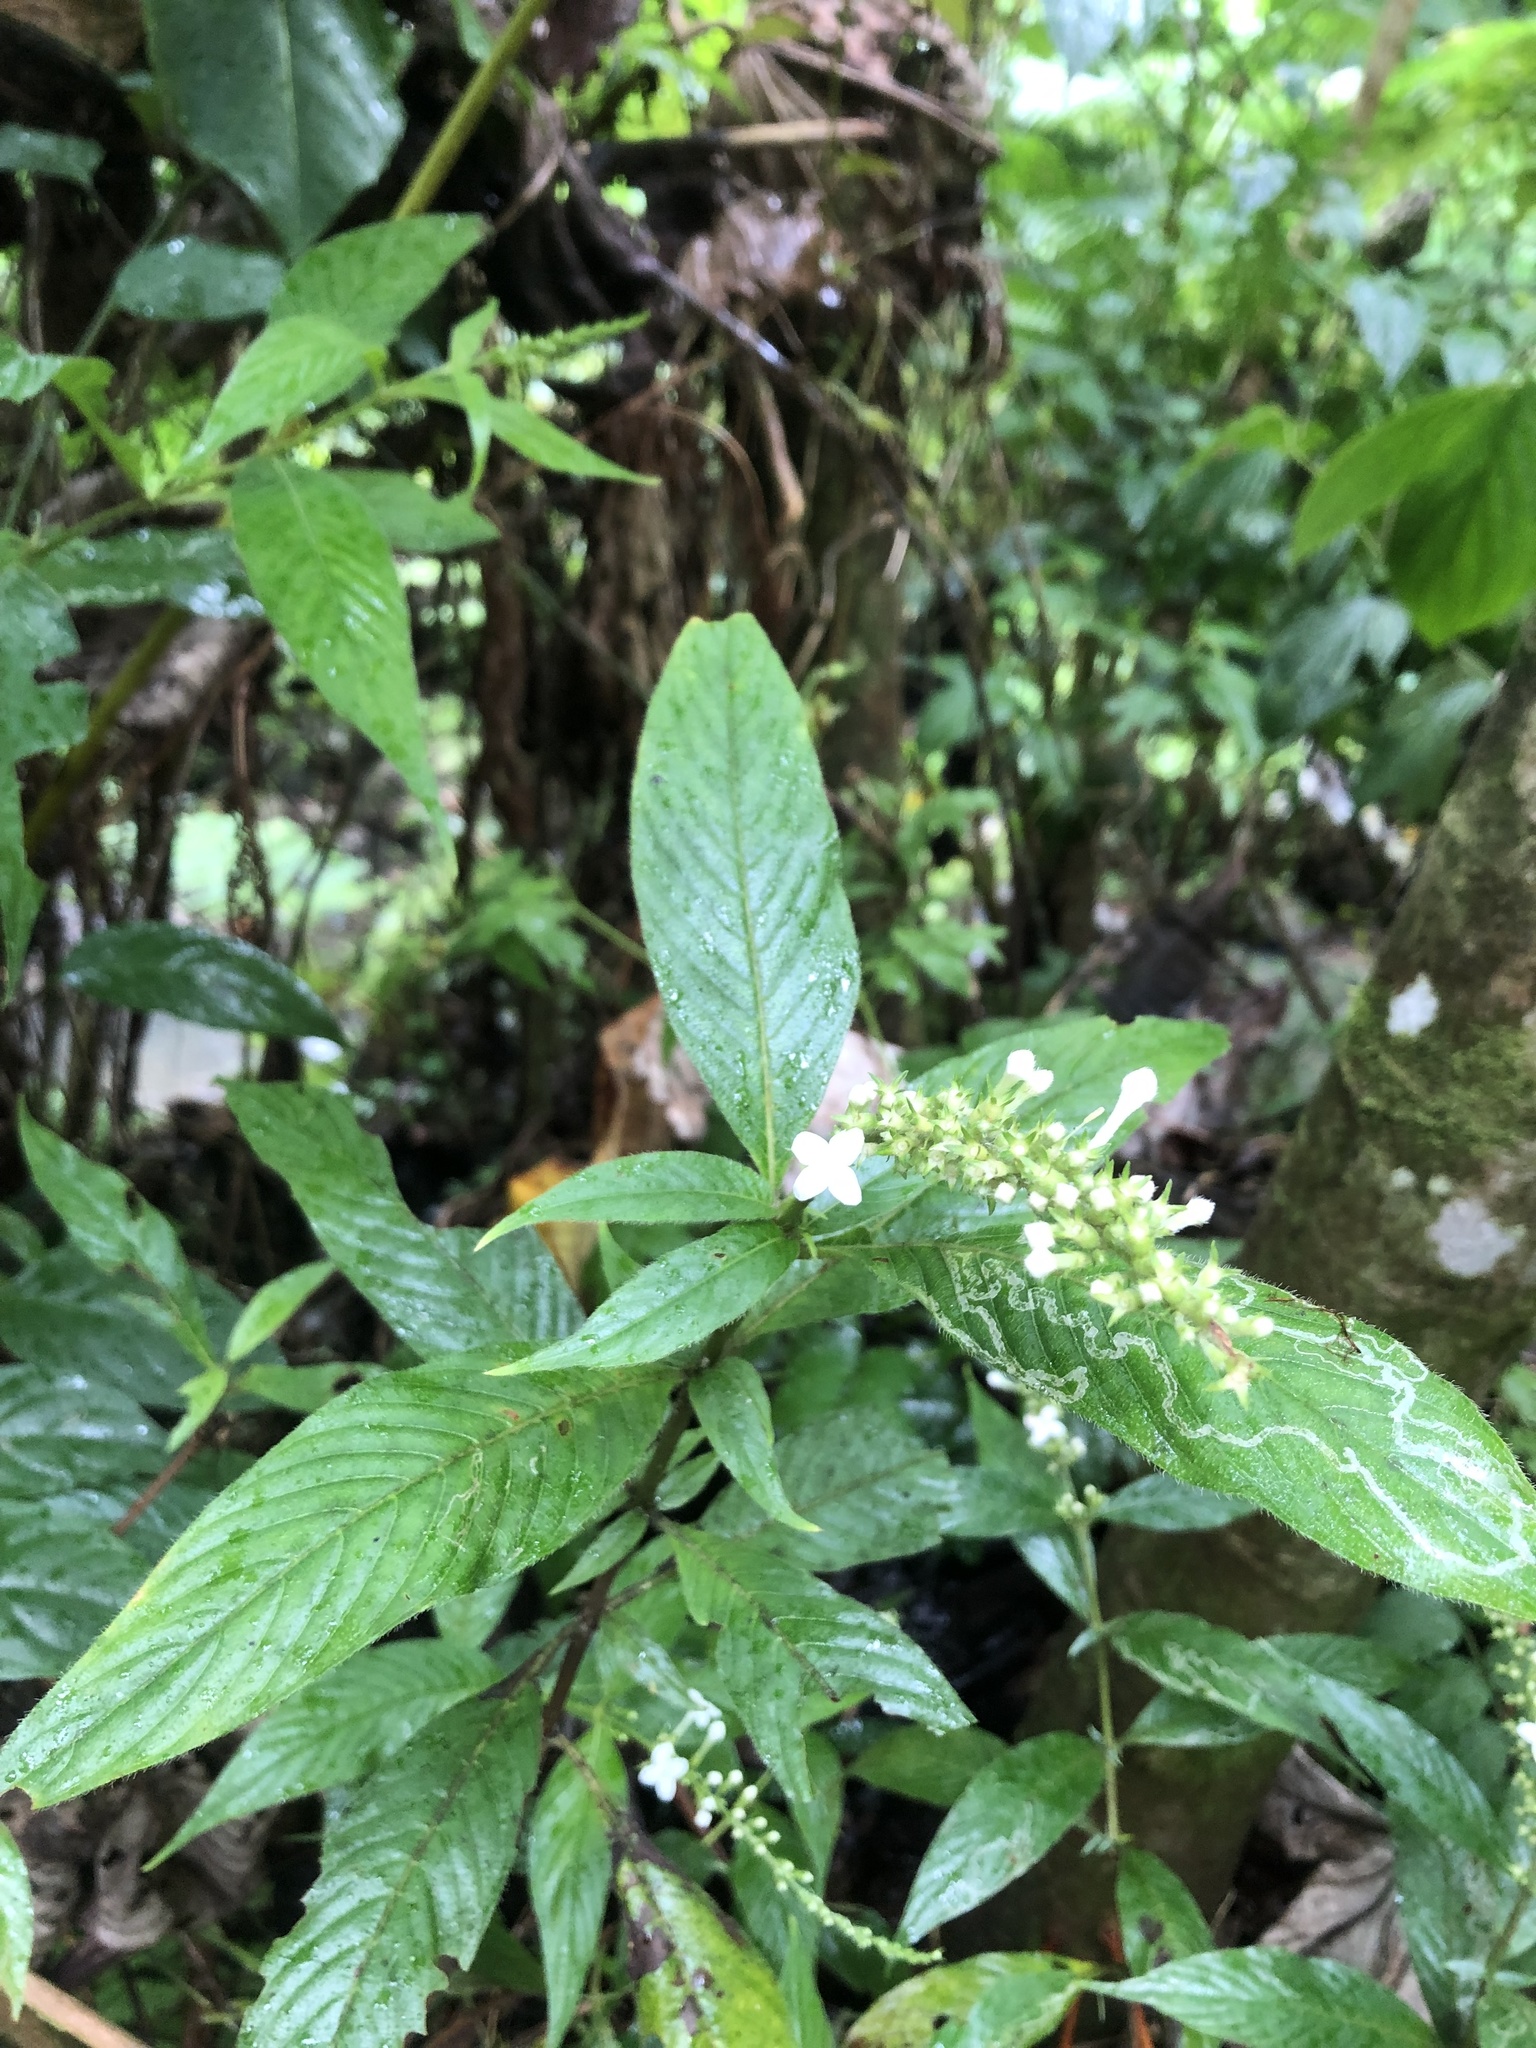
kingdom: Plantae
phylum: Tracheophyta
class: Magnoliopsida
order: Gentianales
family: Rubiaceae
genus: Gonzalagunia
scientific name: Gonzalagunia hirsuta
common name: Mata de mariposa
